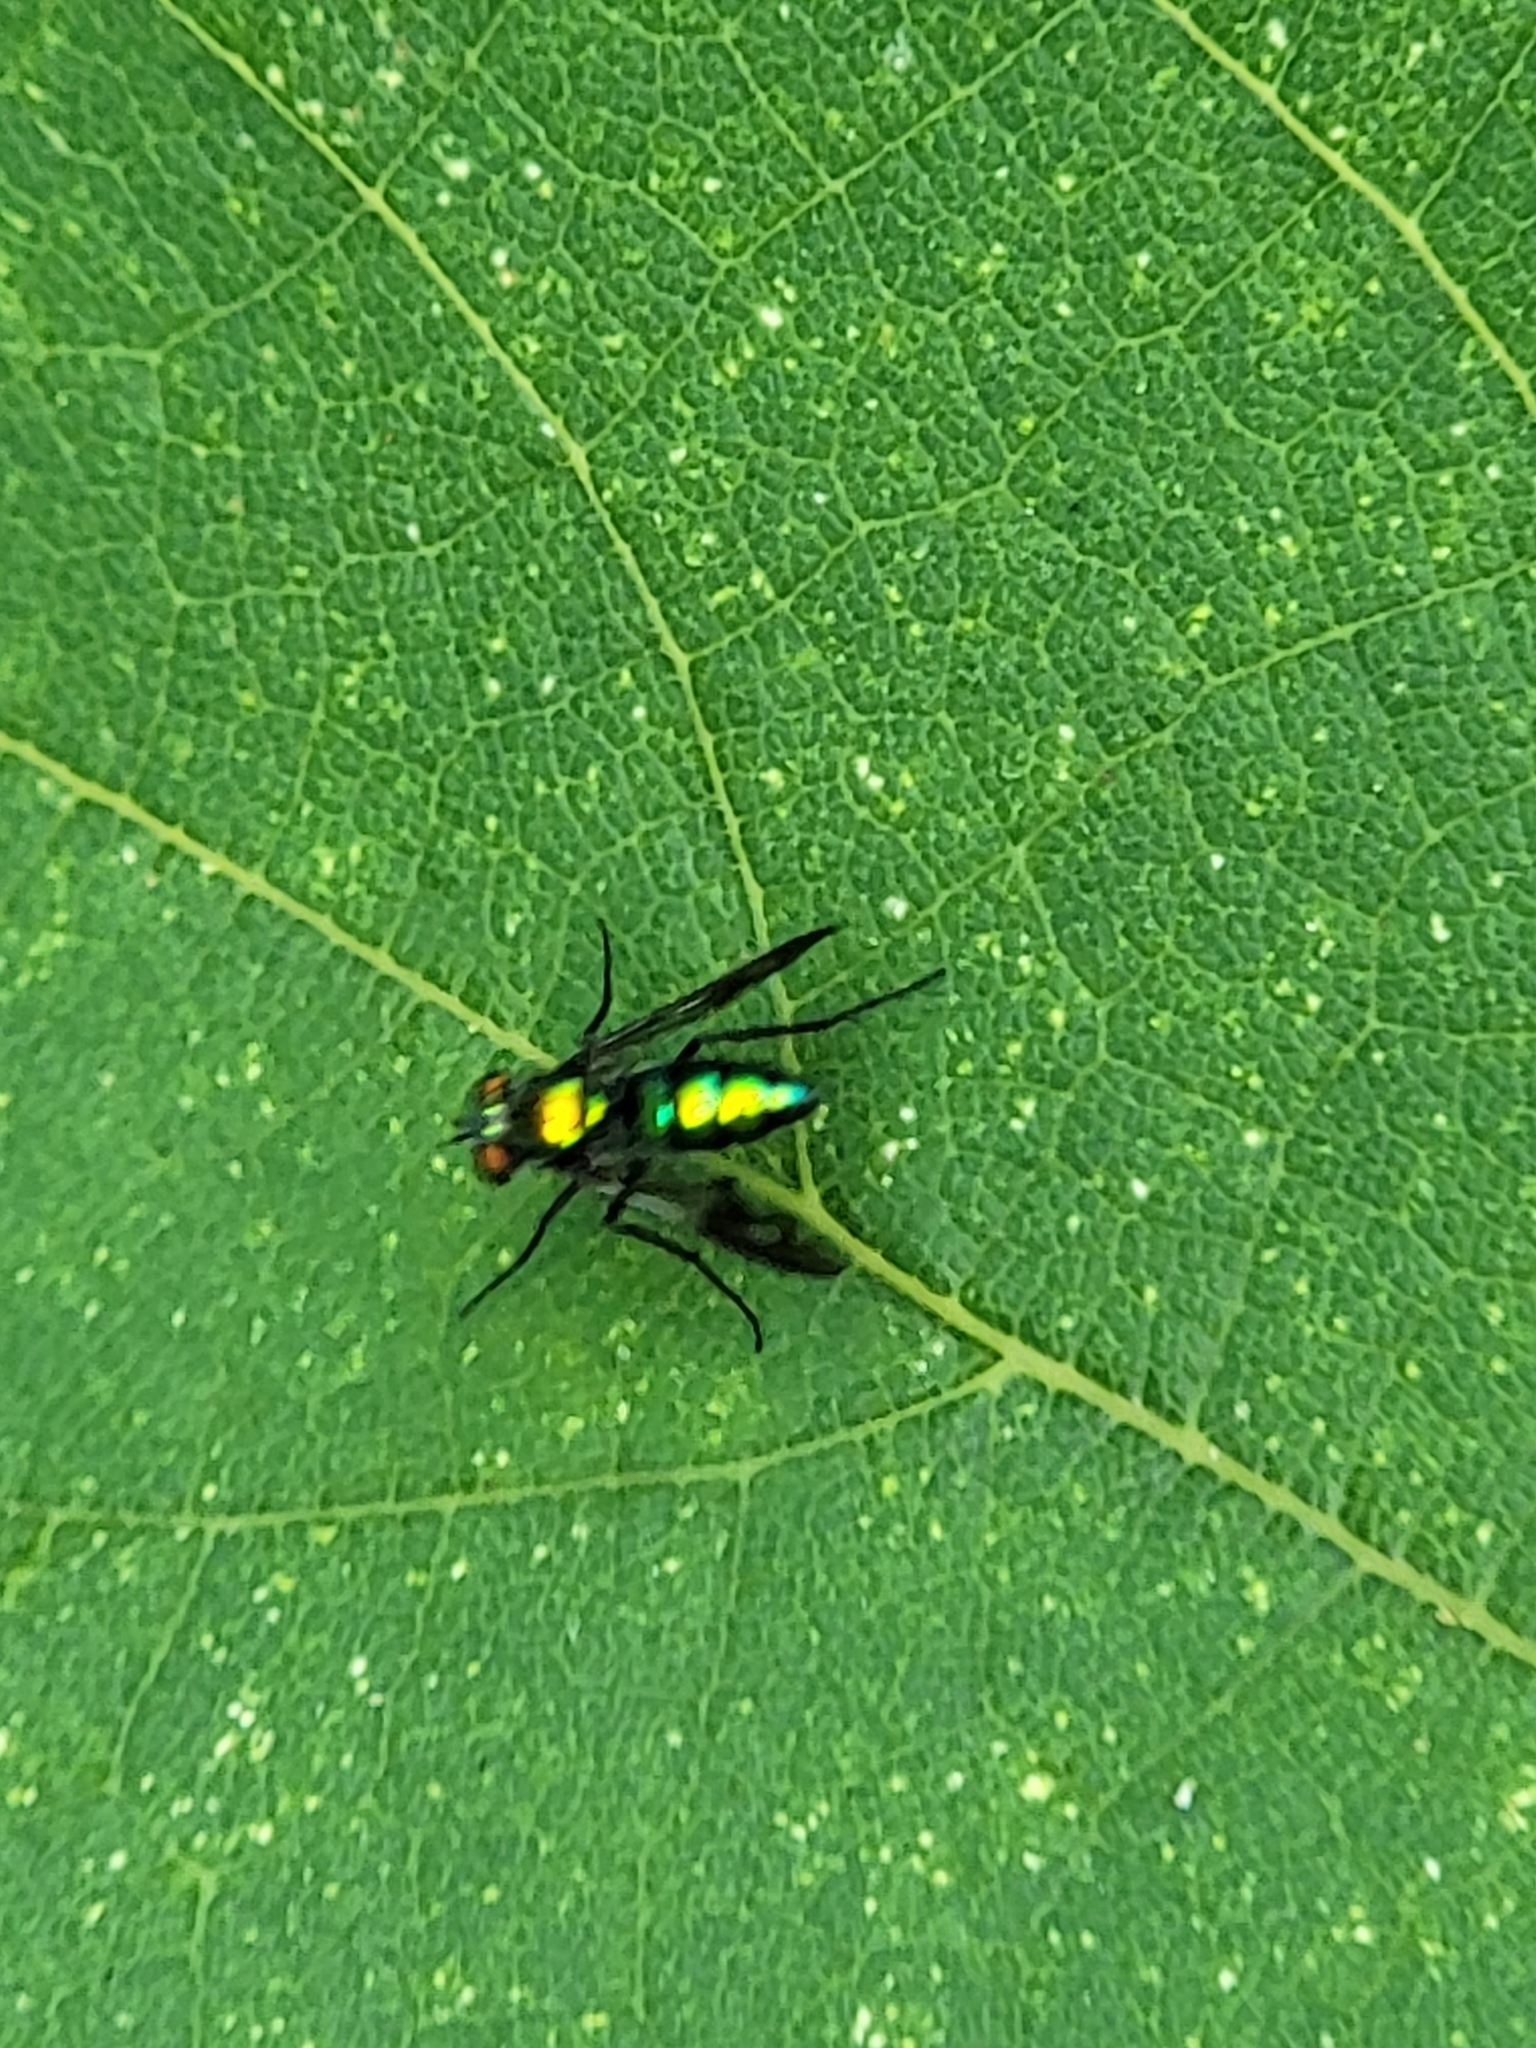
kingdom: Animalia
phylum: Arthropoda
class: Insecta
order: Diptera
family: Dolichopodidae
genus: Condylostylus
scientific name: Condylostylus patibulatus
